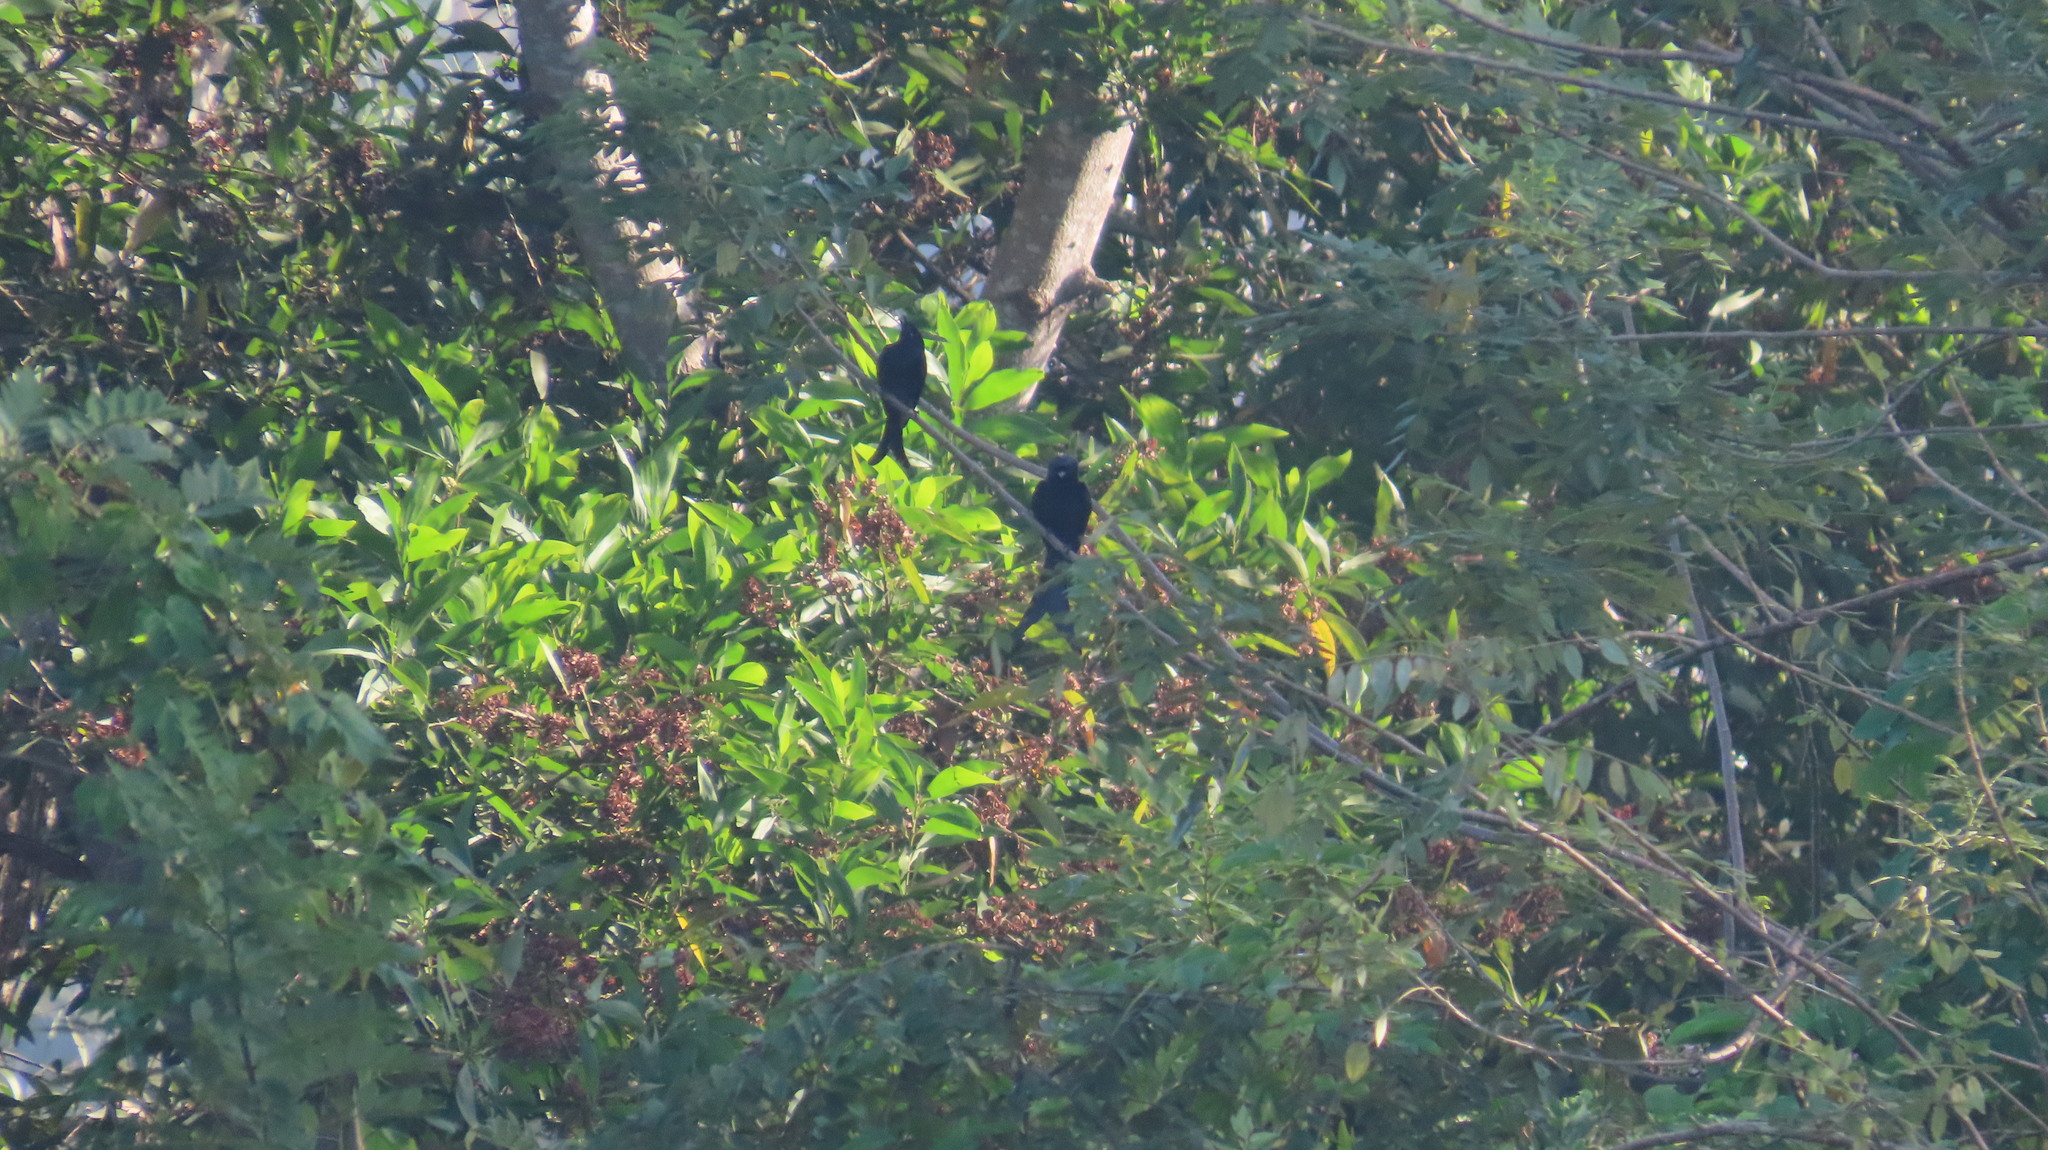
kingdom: Animalia
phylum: Chordata
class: Aves
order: Passeriformes
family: Dicruridae
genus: Dicrurus
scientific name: Dicrurus macrocercus
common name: Black drongo
